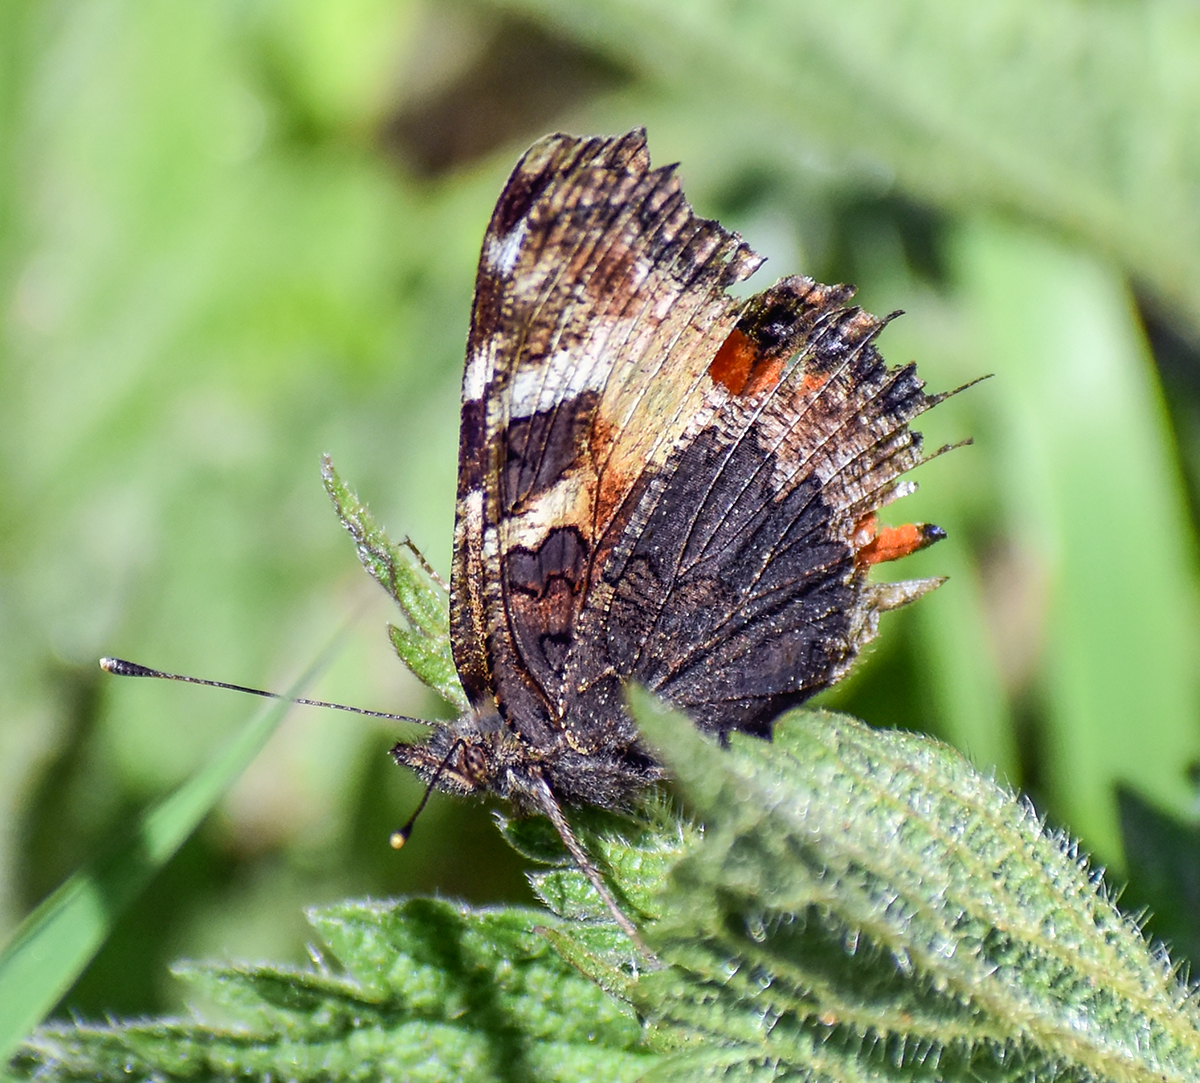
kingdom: Animalia
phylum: Arthropoda
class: Insecta
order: Lepidoptera
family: Nymphalidae
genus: Aglais
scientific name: Aglais urticae
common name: Small tortoiseshell
